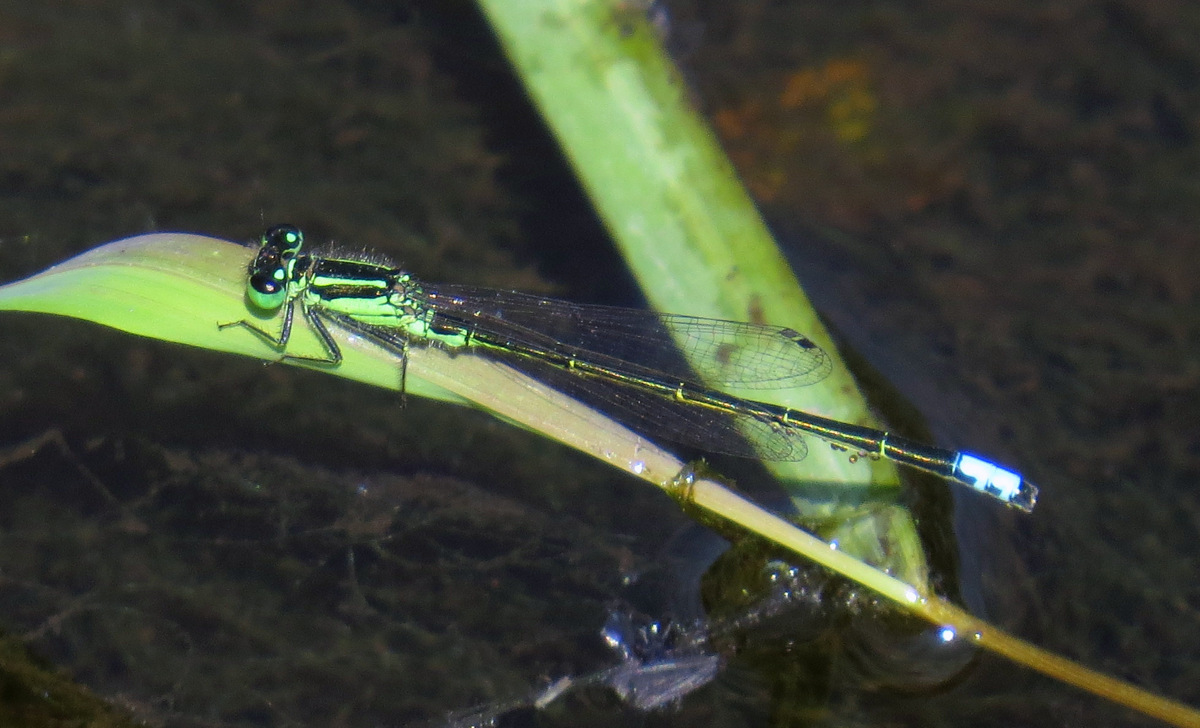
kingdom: Animalia
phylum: Arthropoda
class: Insecta
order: Odonata
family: Coenagrionidae
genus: Ischnura
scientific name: Ischnura verticalis
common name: Eastern forktail
